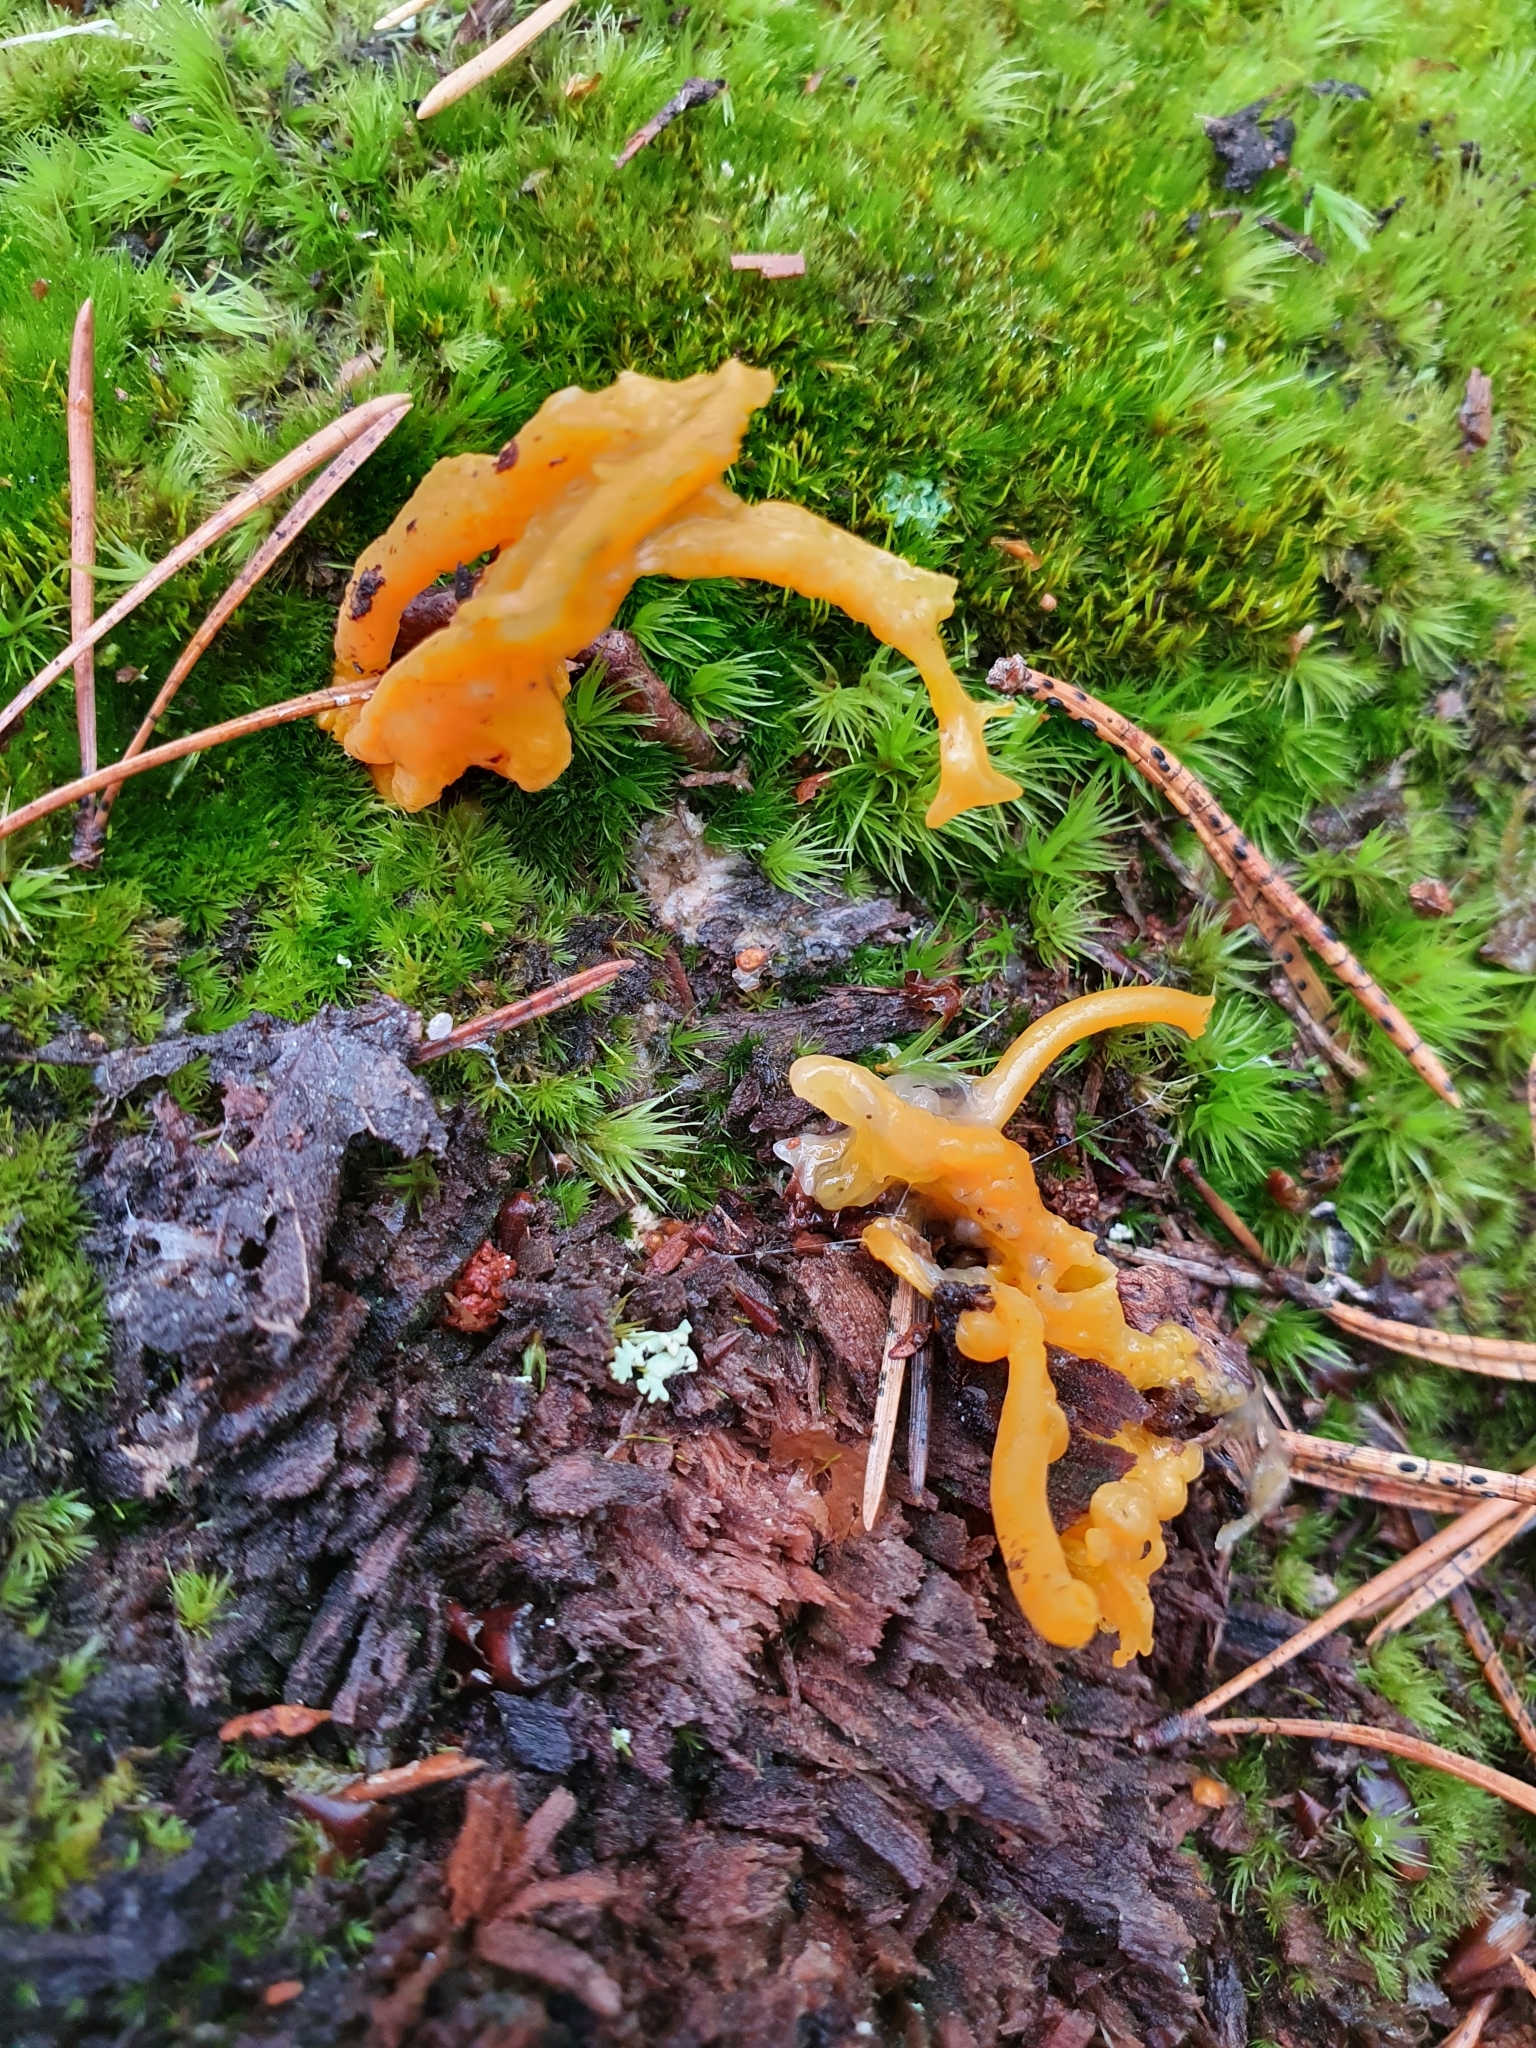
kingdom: Fungi
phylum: Basidiomycota
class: Dacrymycetes
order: Dacrymycetales
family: Dacrymycetaceae
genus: Calocera
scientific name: Calocera viscosa
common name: Yellow stagshorn
